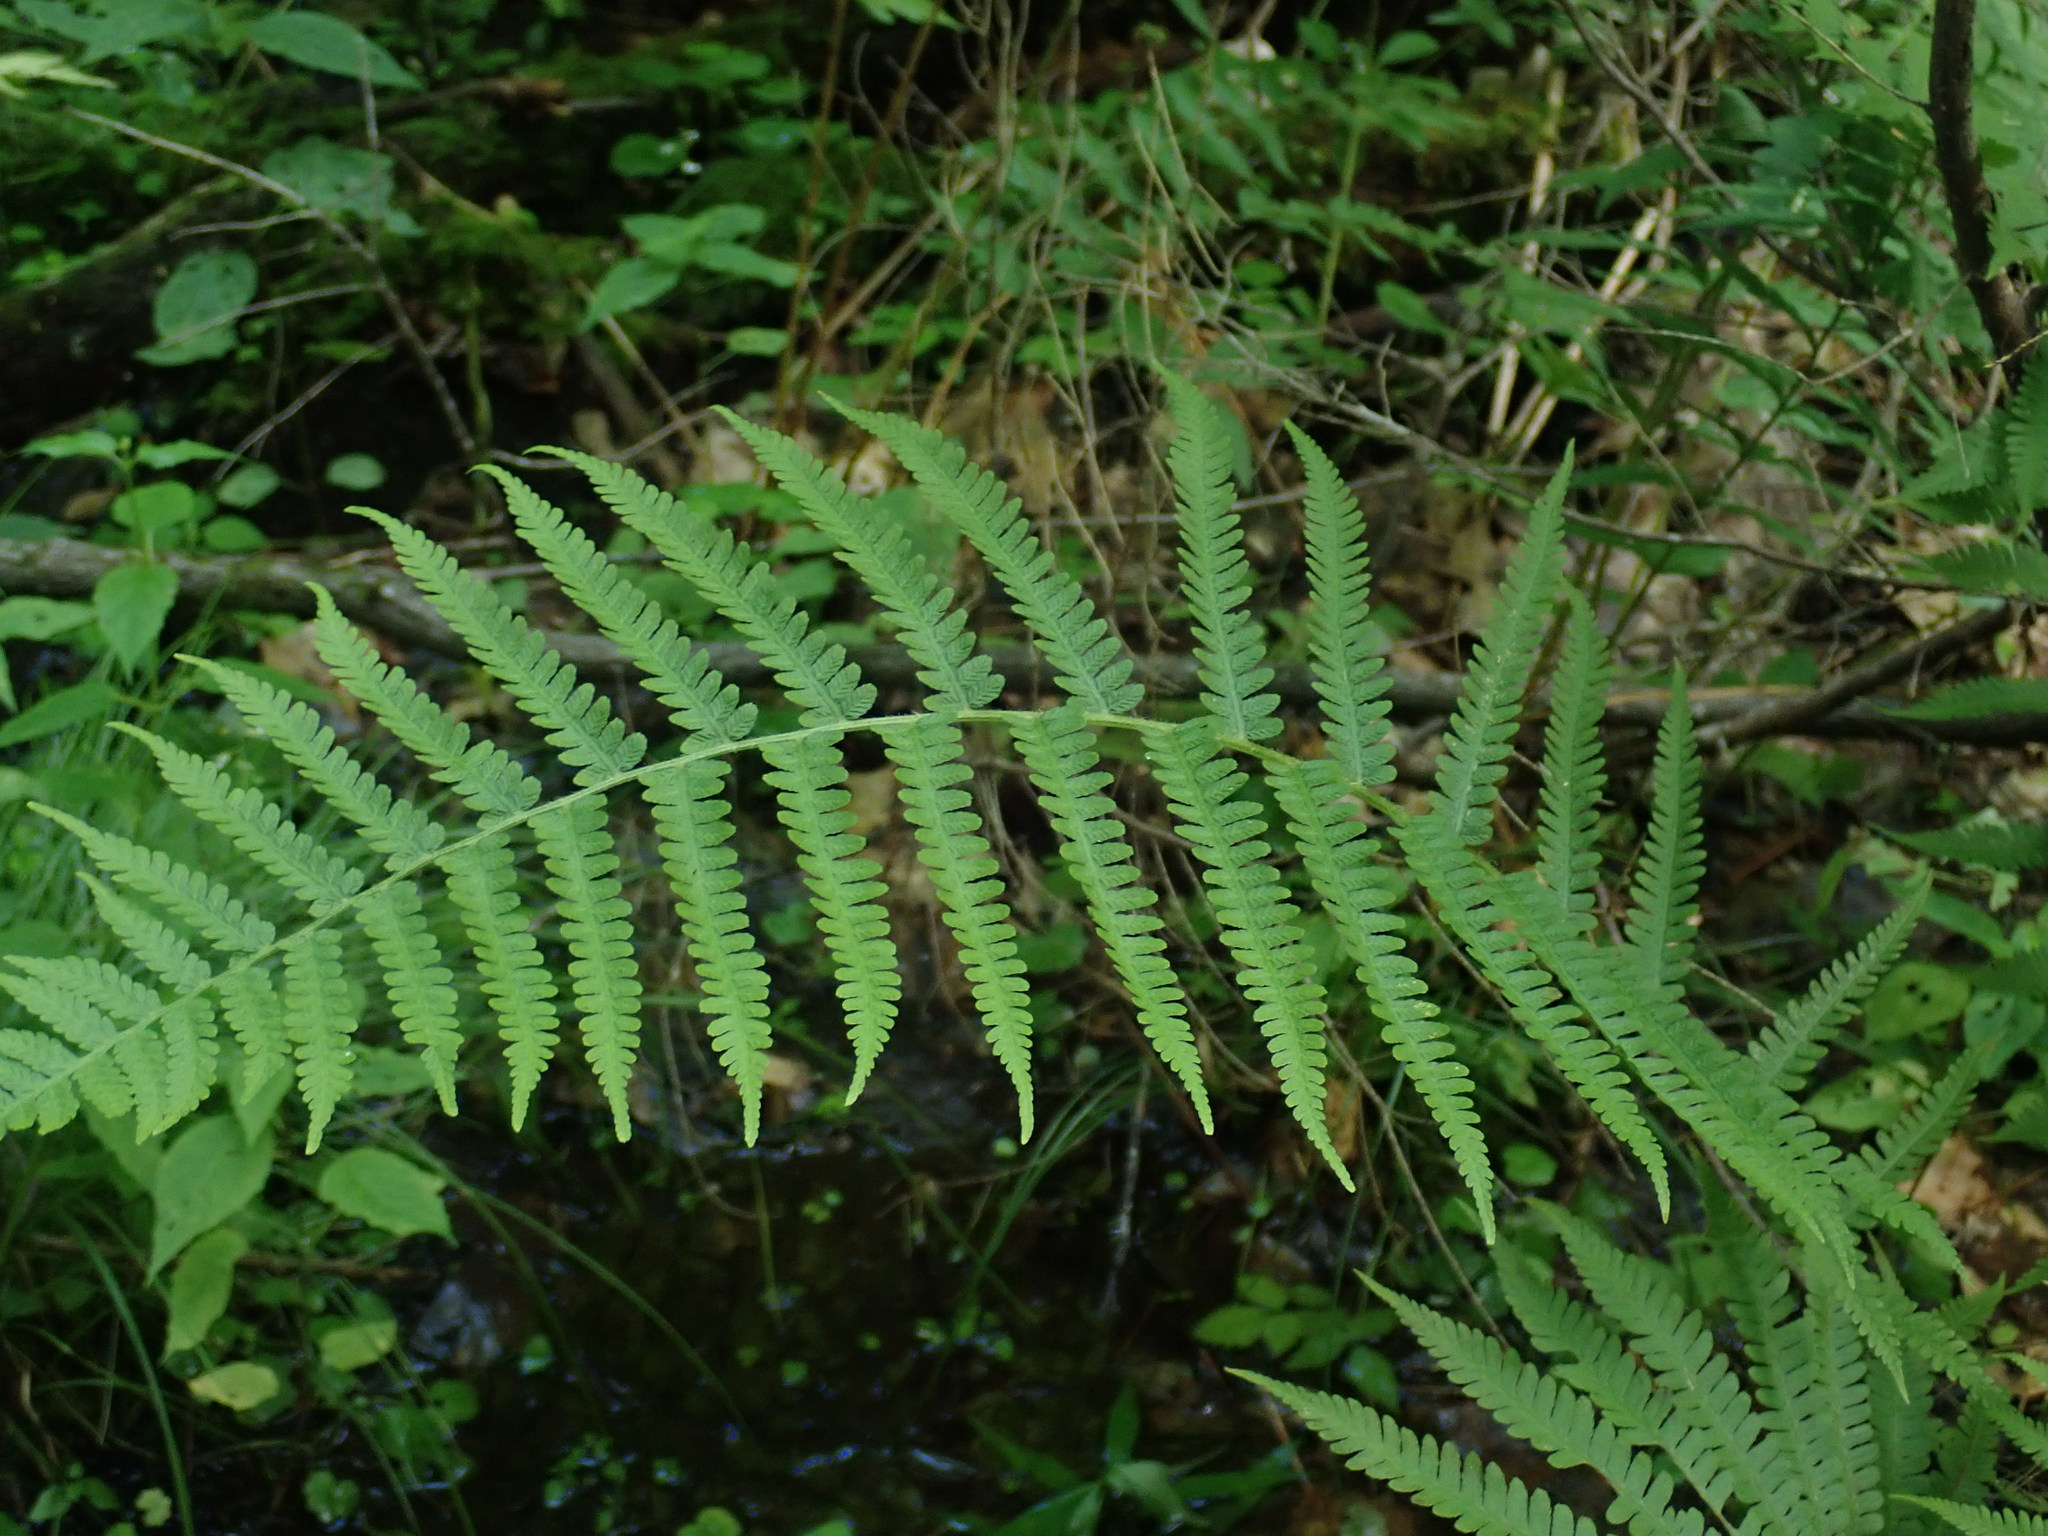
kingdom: Plantae
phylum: Tracheophyta
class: Polypodiopsida
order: Polypodiales
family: Athyriaceae
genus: Deparia
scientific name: Deparia acrostichoides
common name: Silver false spleenwort
